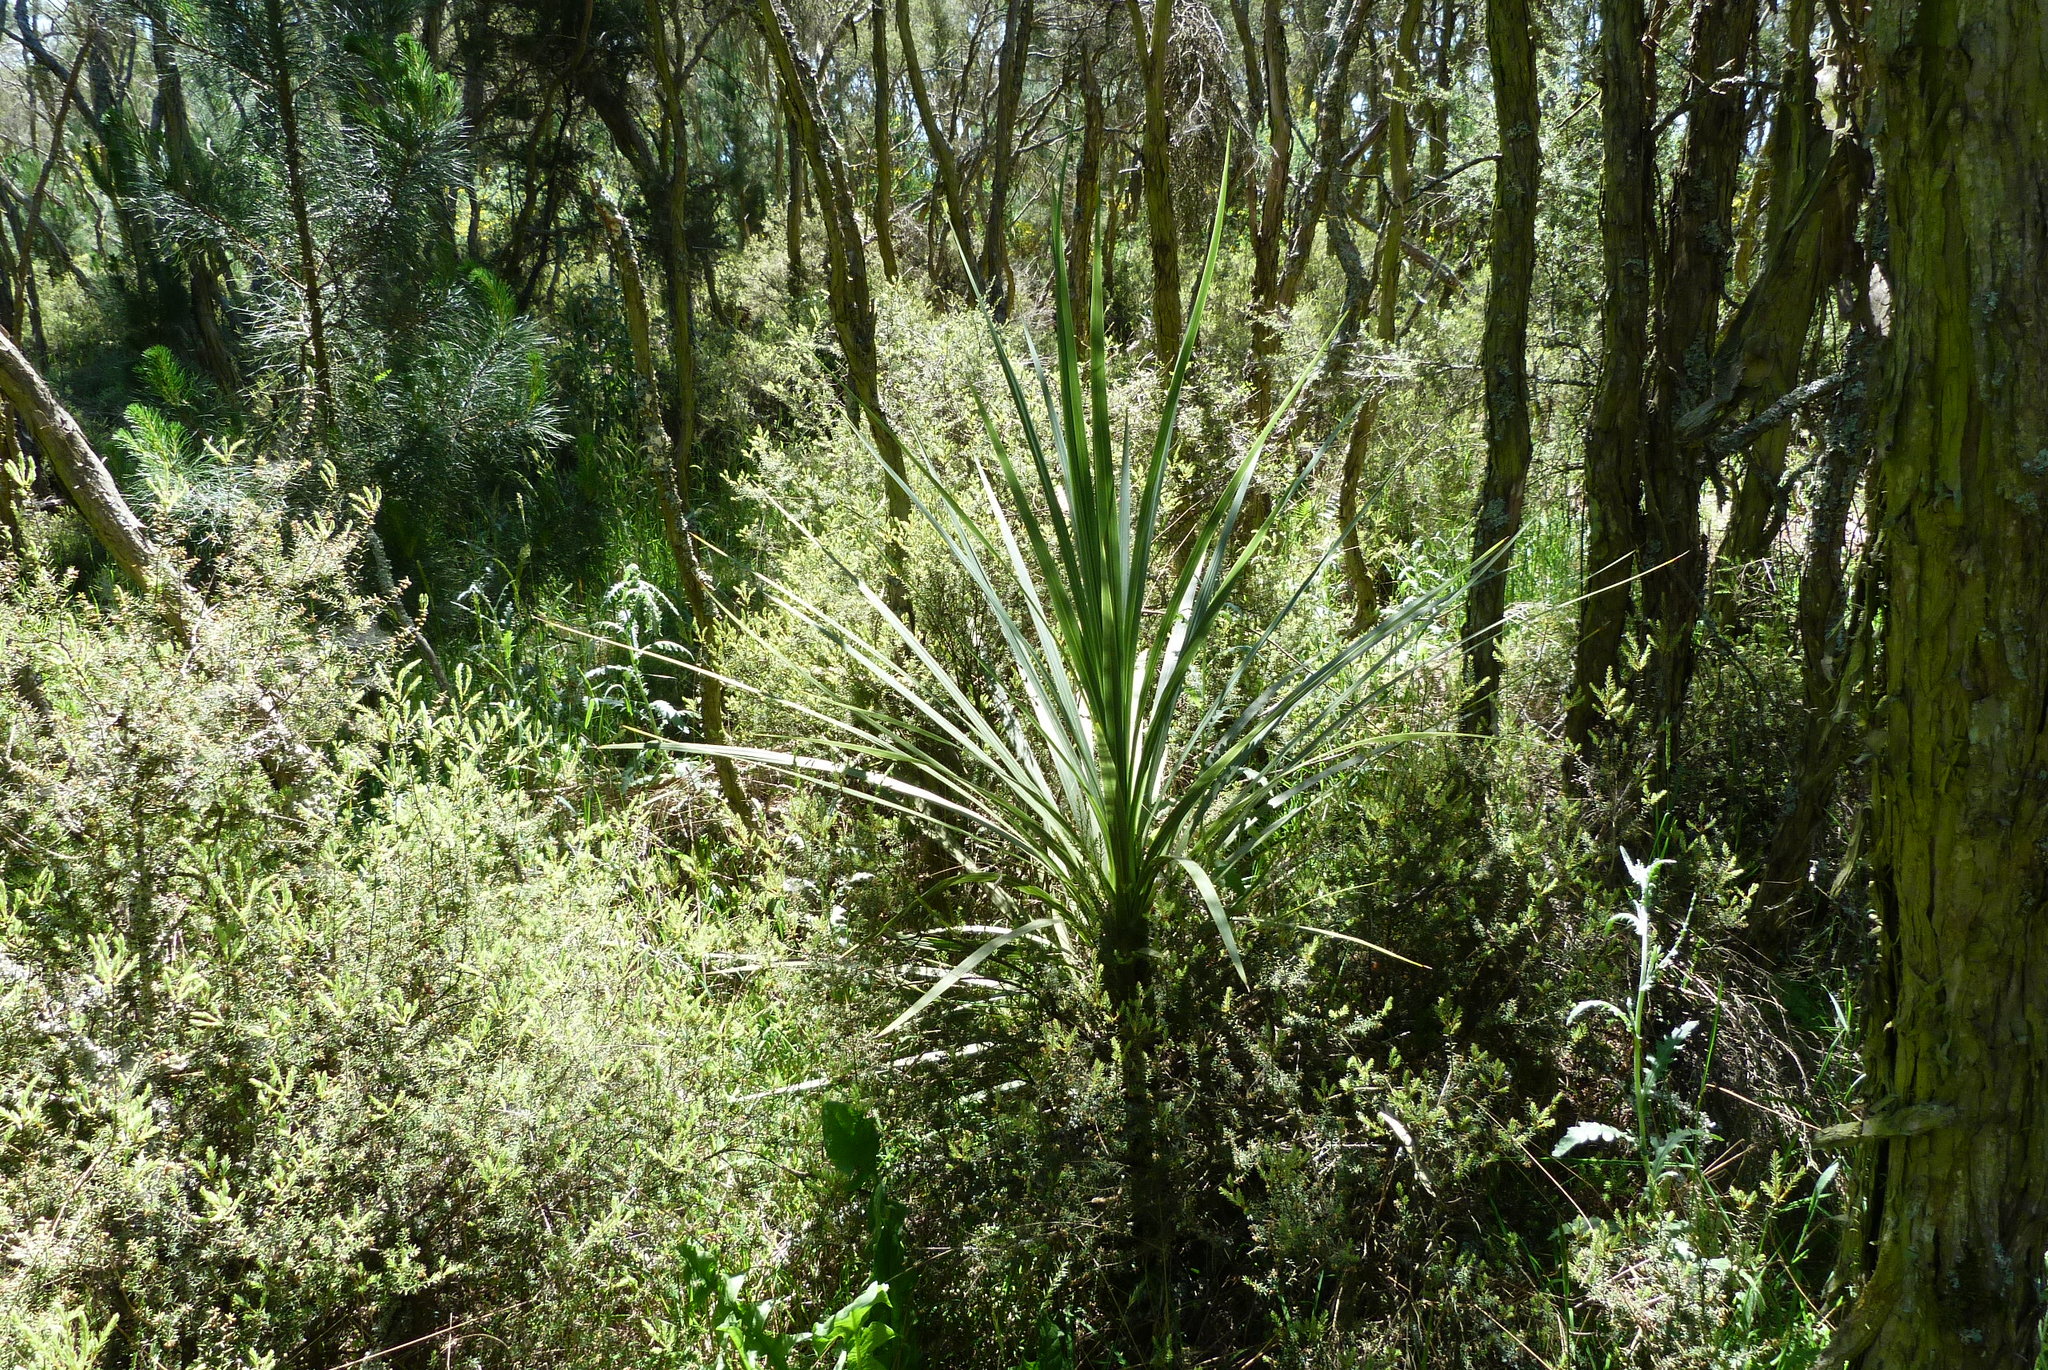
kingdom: Plantae
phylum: Tracheophyta
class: Liliopsida
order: Asparagales
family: Asparagaceae
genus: Cordyline
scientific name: Cordyline australis
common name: Cabbage-palm
